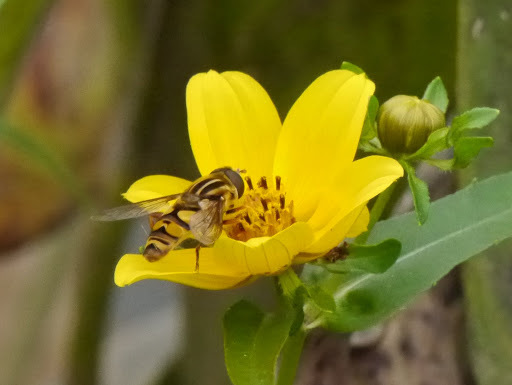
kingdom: Animalia
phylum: Arthropoda
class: Insecta
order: Diptera
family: Syrphidae
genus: Helophilus
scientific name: Helophilus fasciatus
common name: Narrow-headed marsh fly
